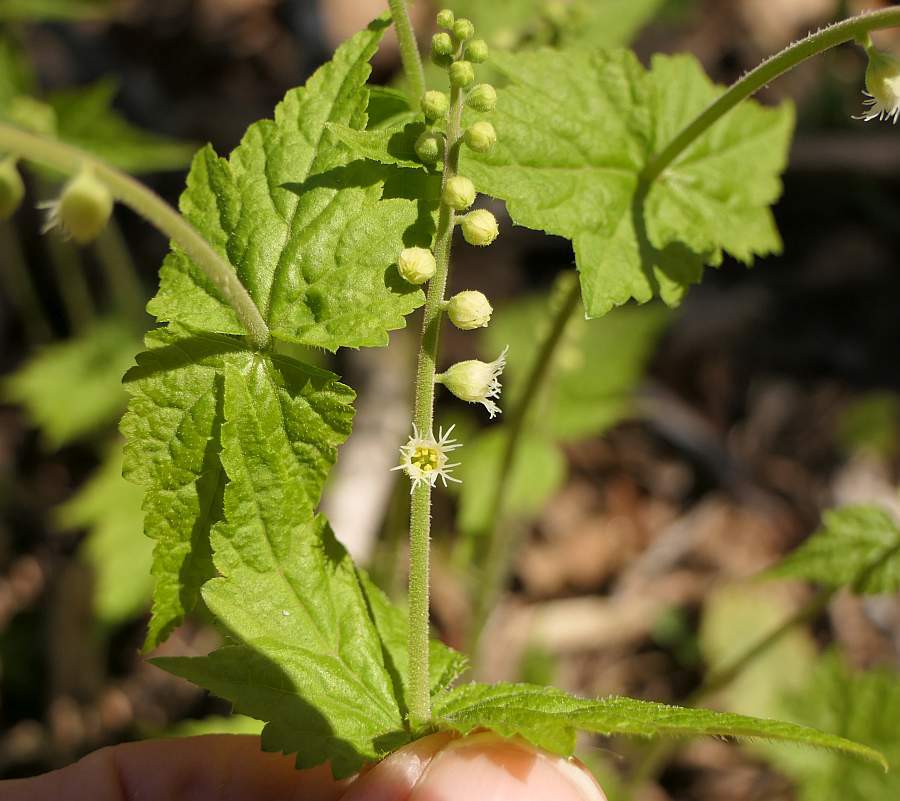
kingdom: Plantae
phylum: Tracheophyta
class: Magnoliopsida
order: Saxifragales
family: Saxifragaceae
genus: Mitella
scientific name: Mitella diphylla
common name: Coolwort
